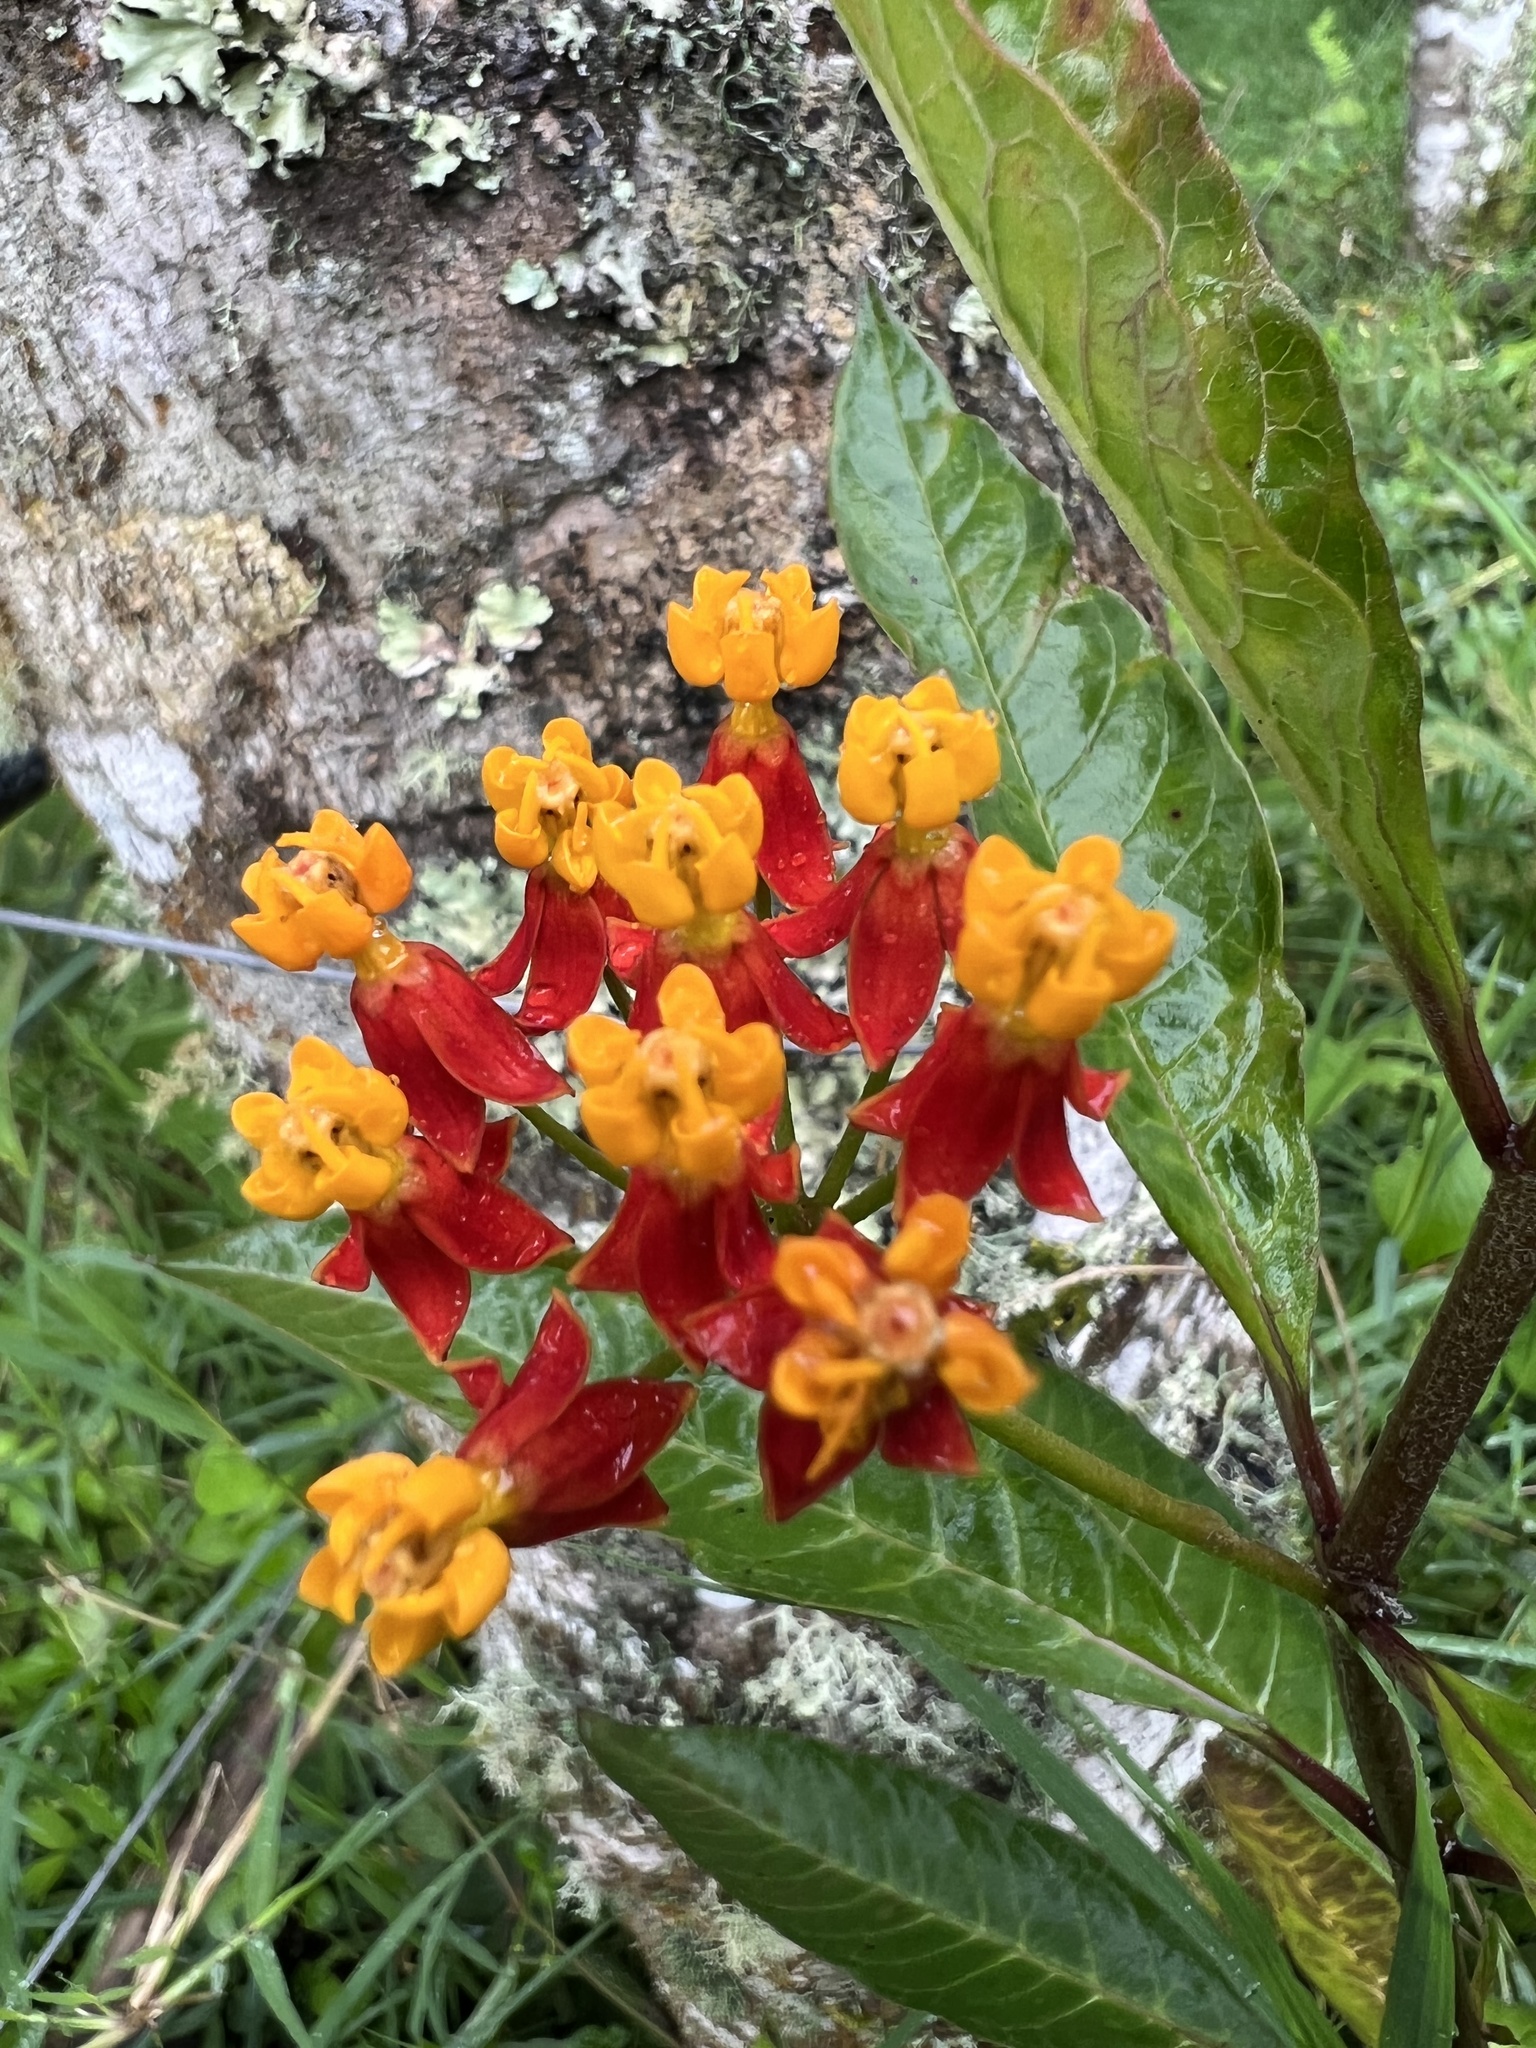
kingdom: Plantae
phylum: Tracheophyta
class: Magnoliopsida
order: Gentianales
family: Apocynaceae
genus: Asclepias
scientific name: Asclepias curassavica
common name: Bloodflower
